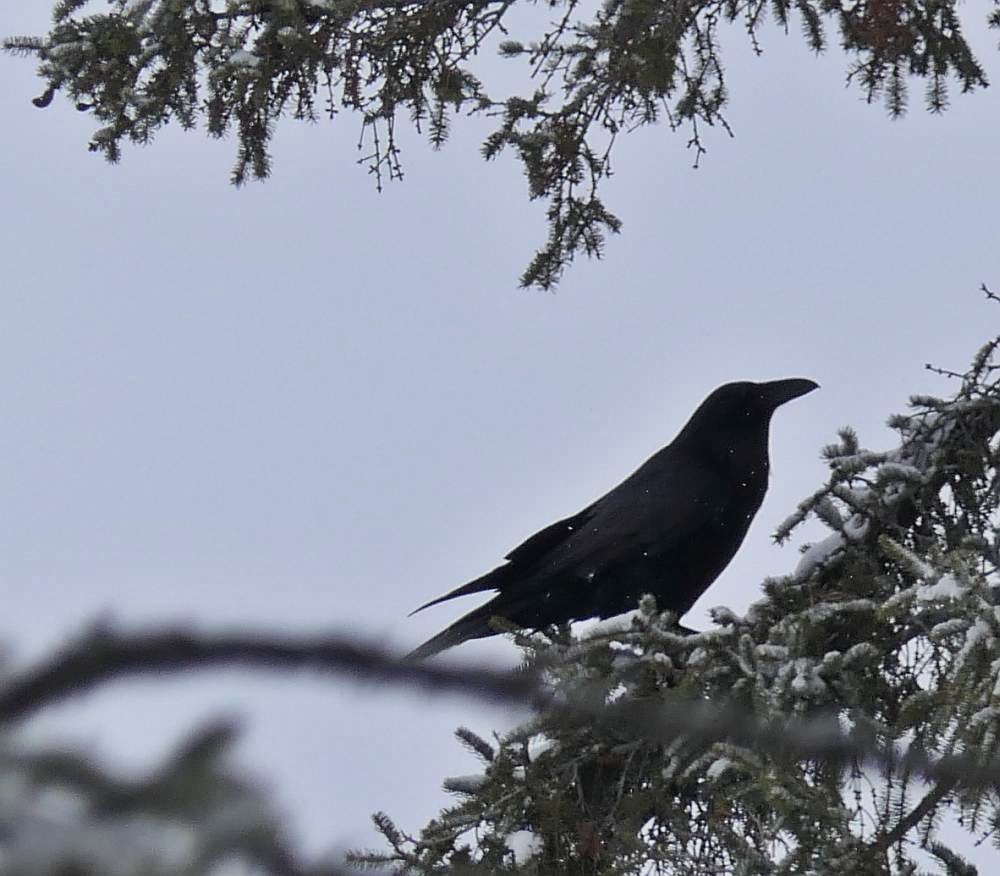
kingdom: Animalia
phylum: Chordata
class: Aves
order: Passeriformes
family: Corvidae
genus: Corvus
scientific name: Corvus corax
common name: Common raven
